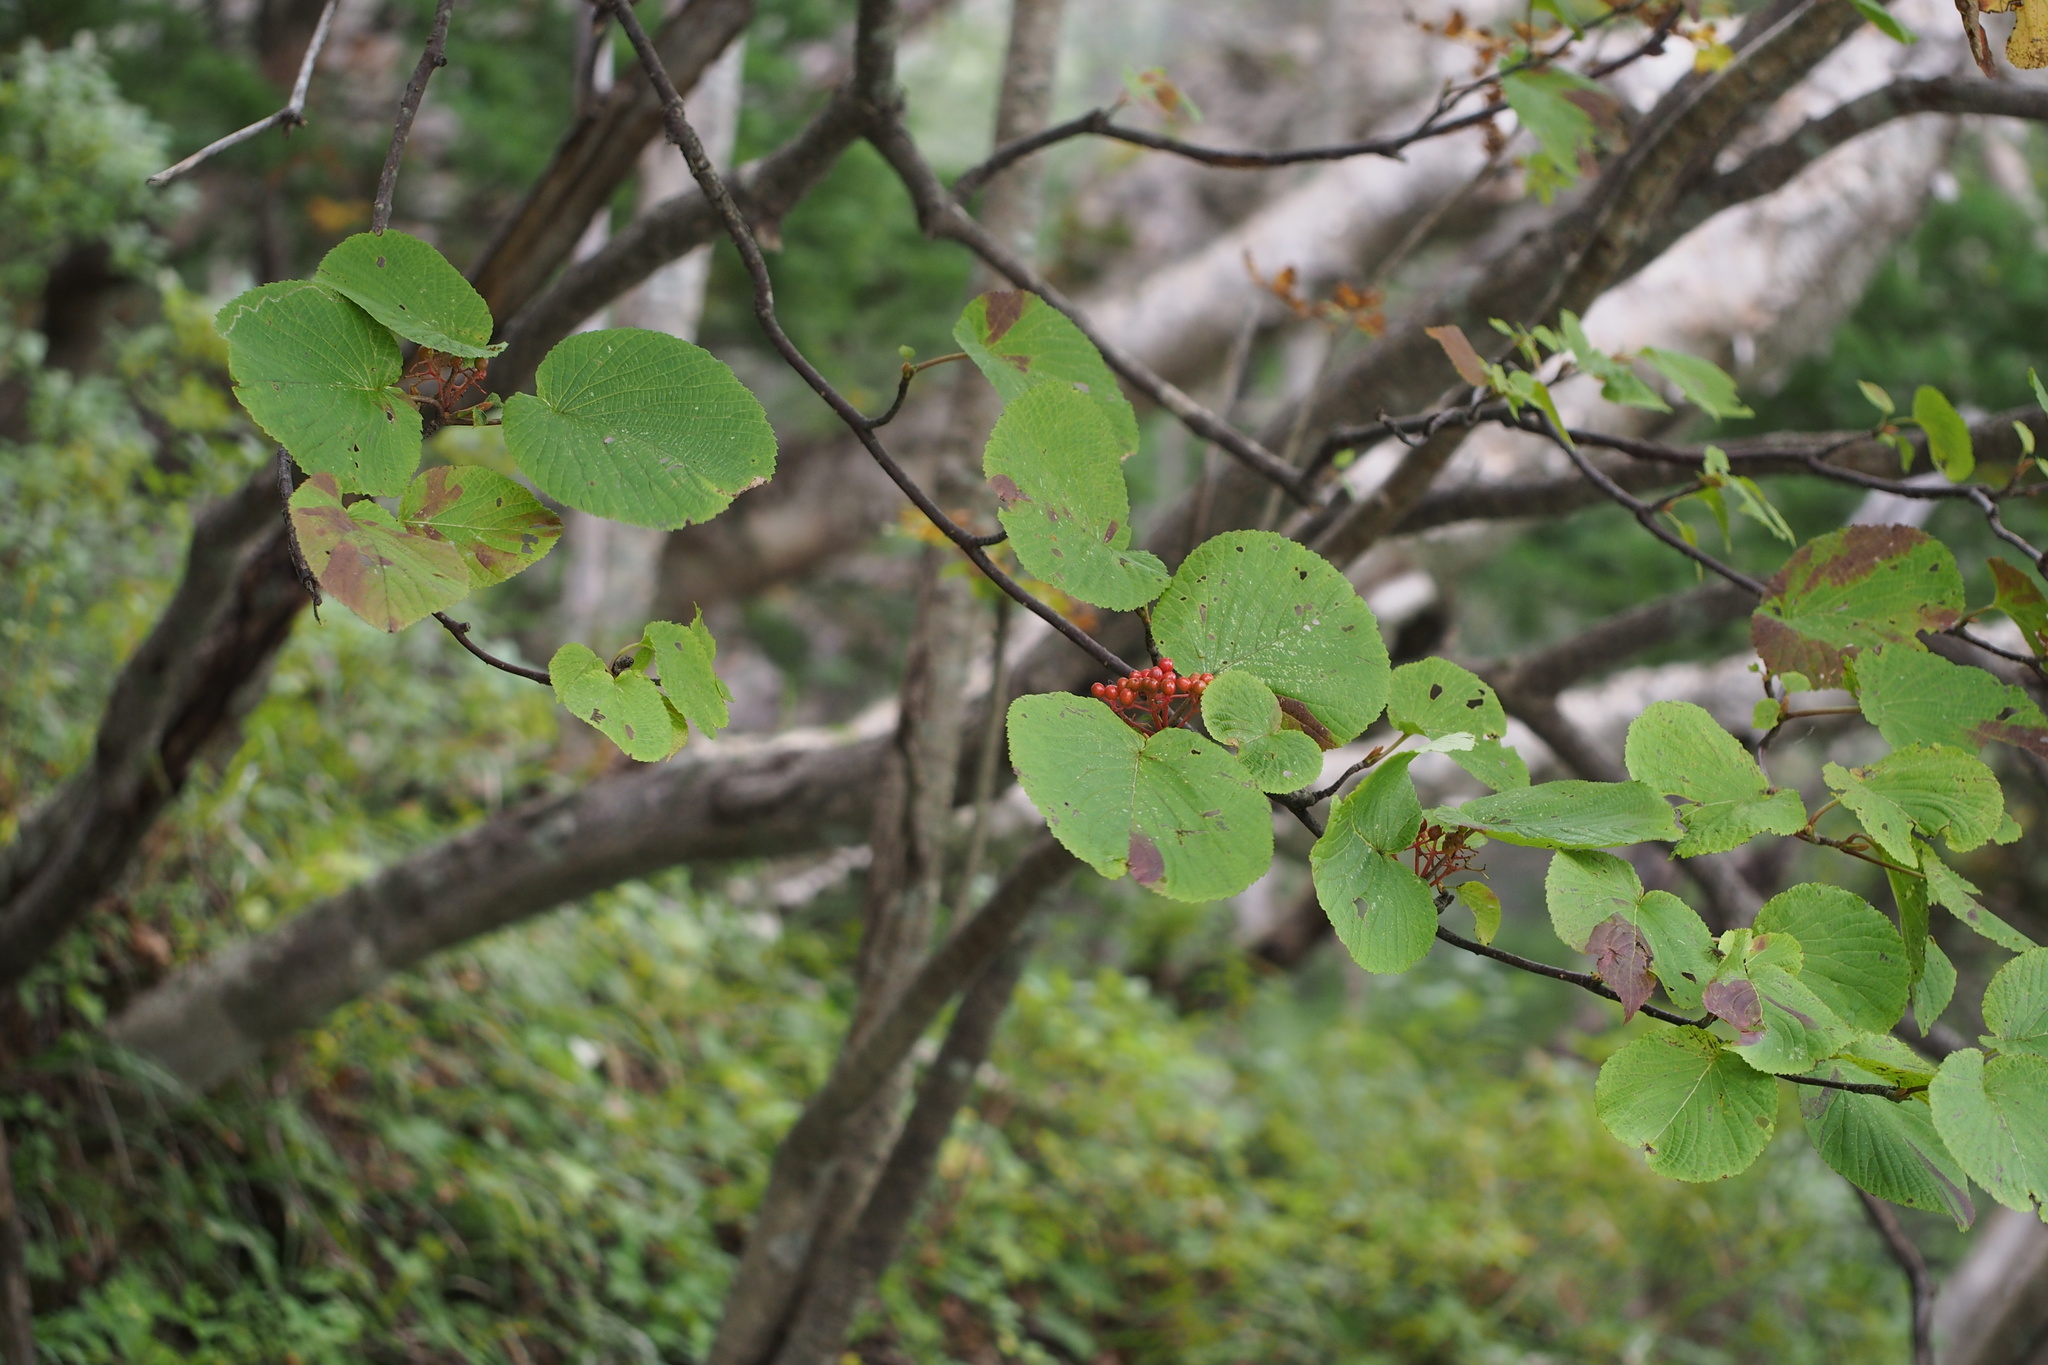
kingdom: Plantae
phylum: Tracheophyta
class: Magnoliopsida
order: Dipsacales
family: Viburnaceae
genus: Viburnum
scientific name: Viburnum furcatum
